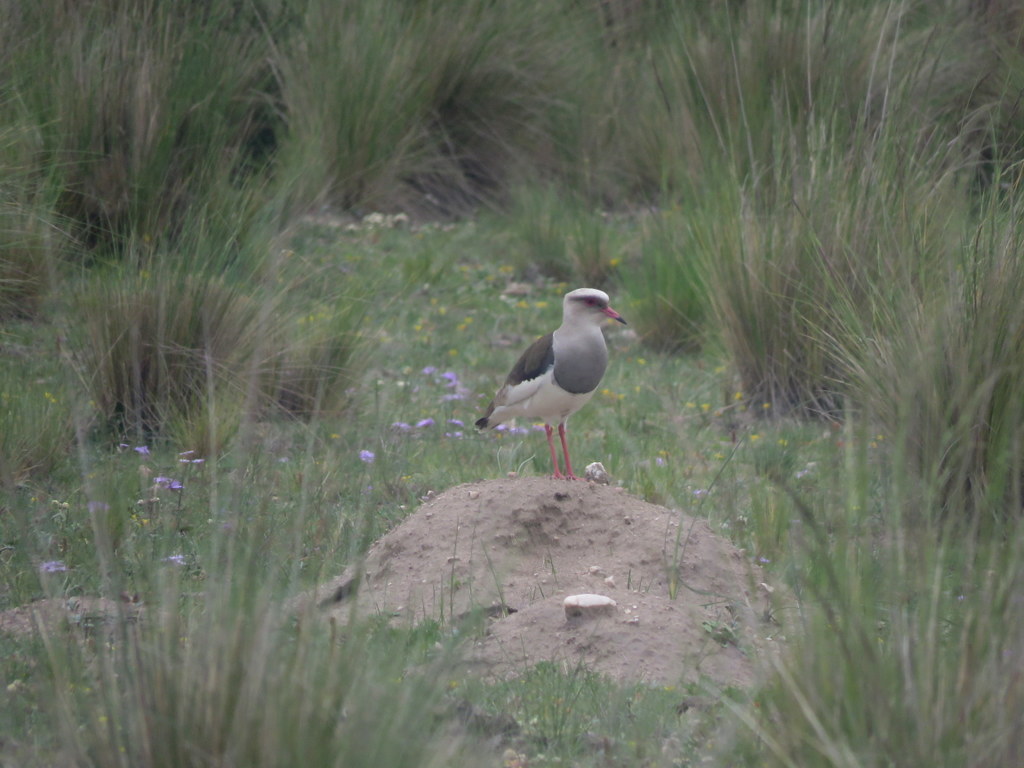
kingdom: Animalia
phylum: Chordata
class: Aves
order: Charadriiformes
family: Charadriidae
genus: Vanellus
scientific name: Vanellus resplendens
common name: Andean lapwing
